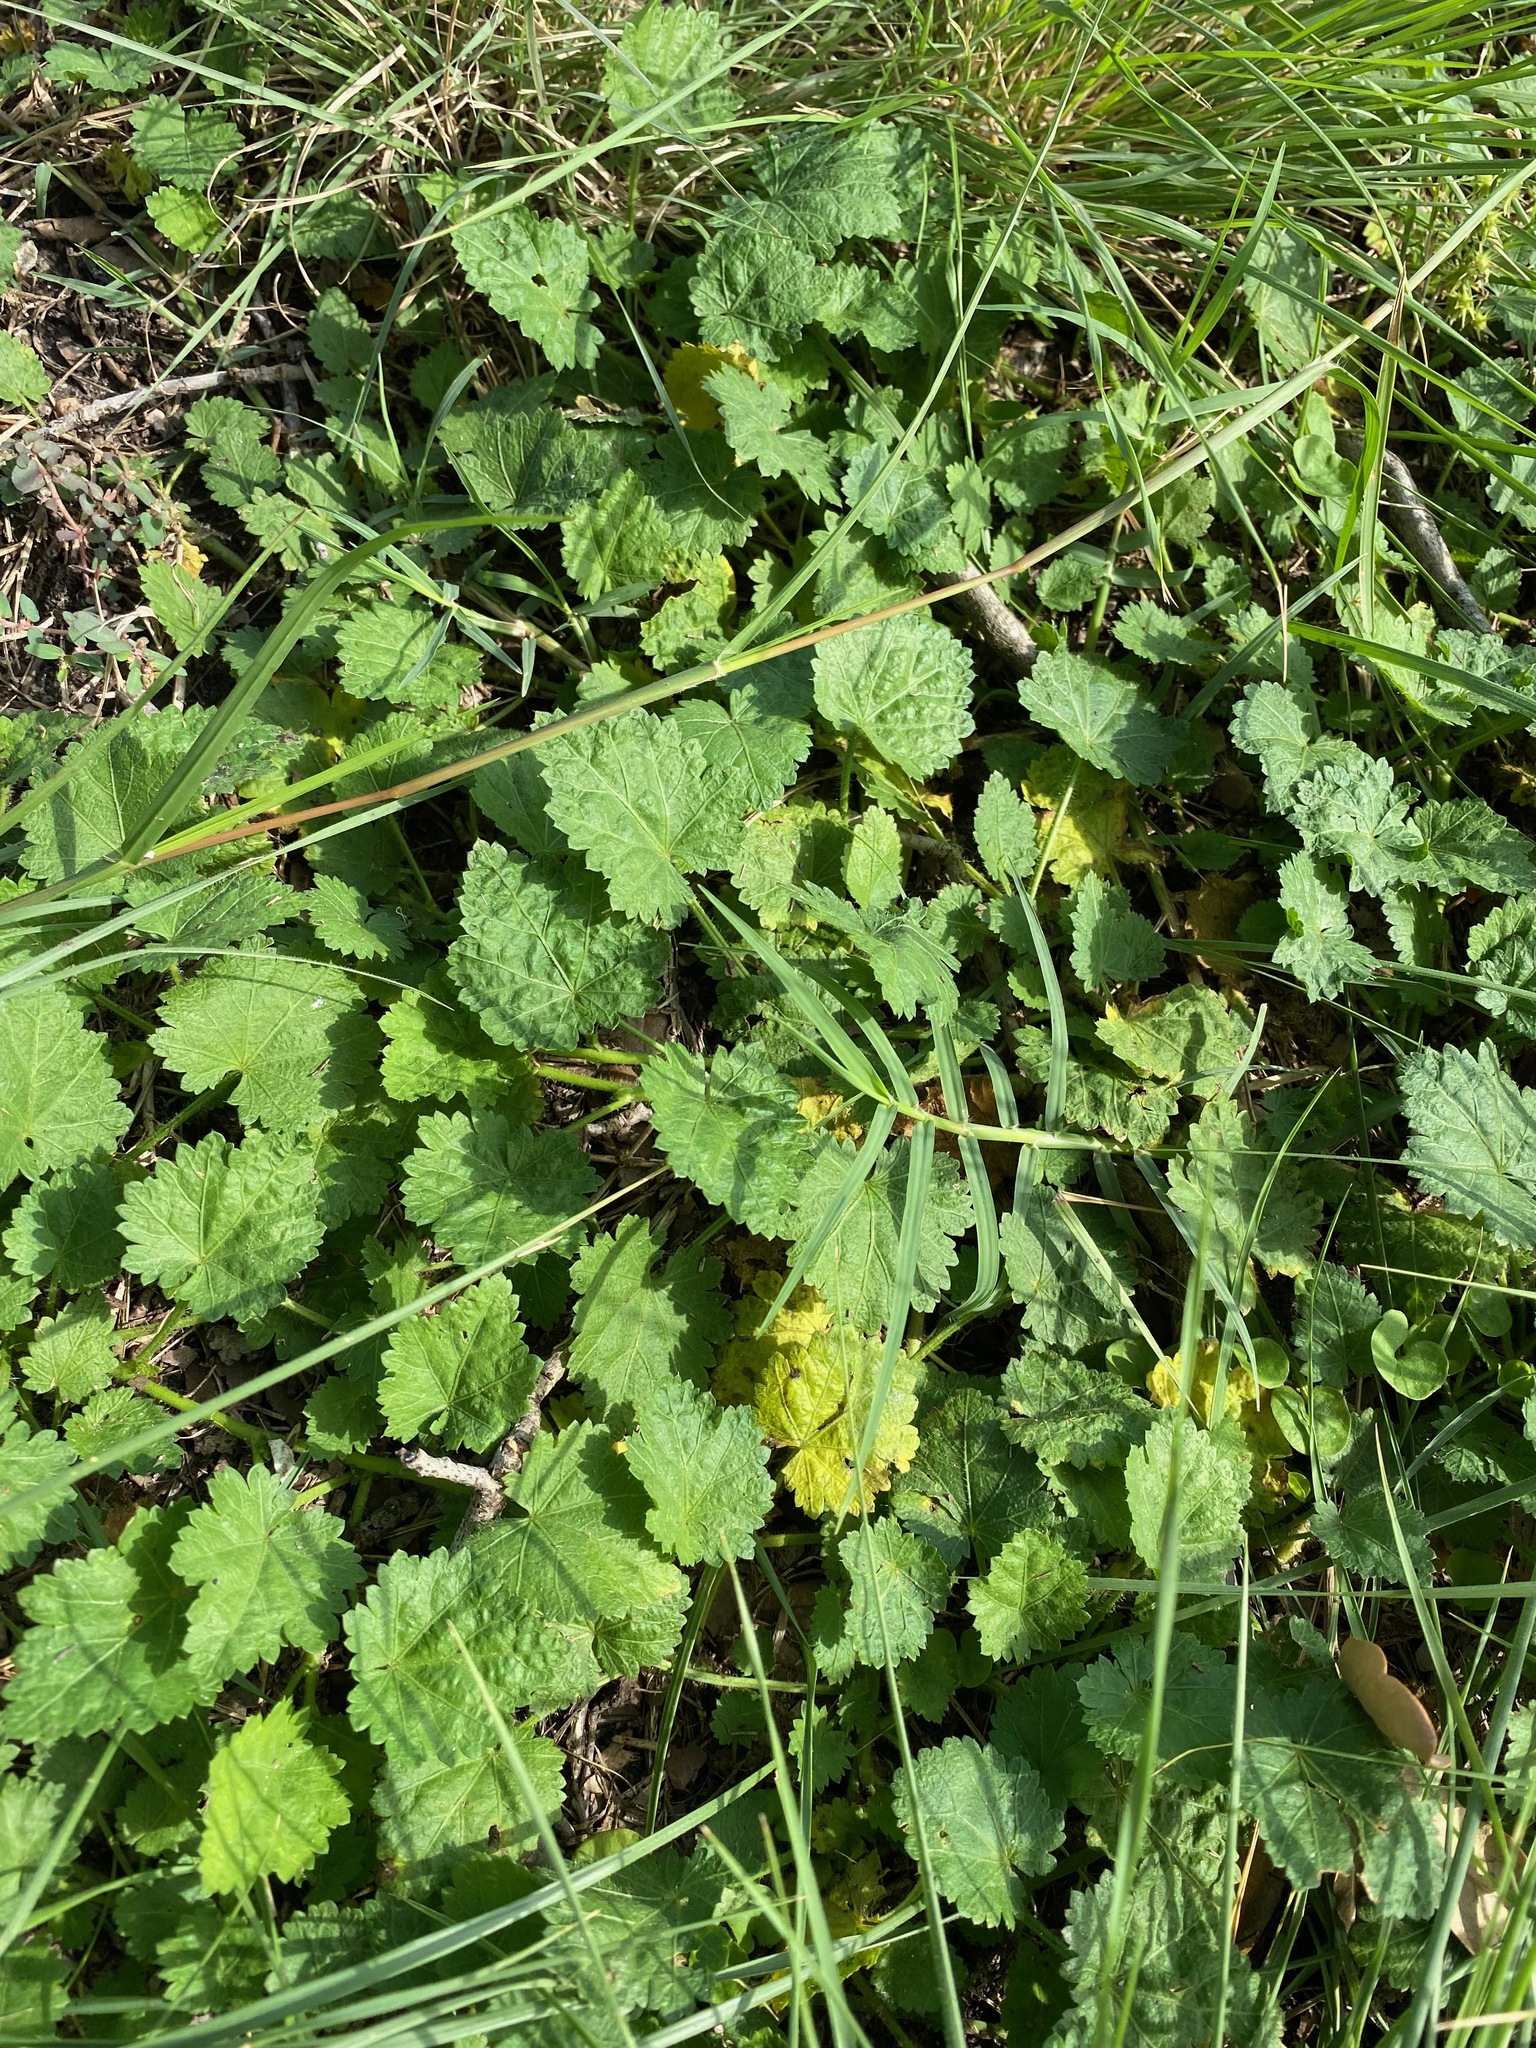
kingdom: Plantae
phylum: Tracheophyta
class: Magnoliopsida
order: Malvales
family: Malvaceae
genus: Modiola
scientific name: Modiola caroliniana
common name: Carolina bristlemallow
